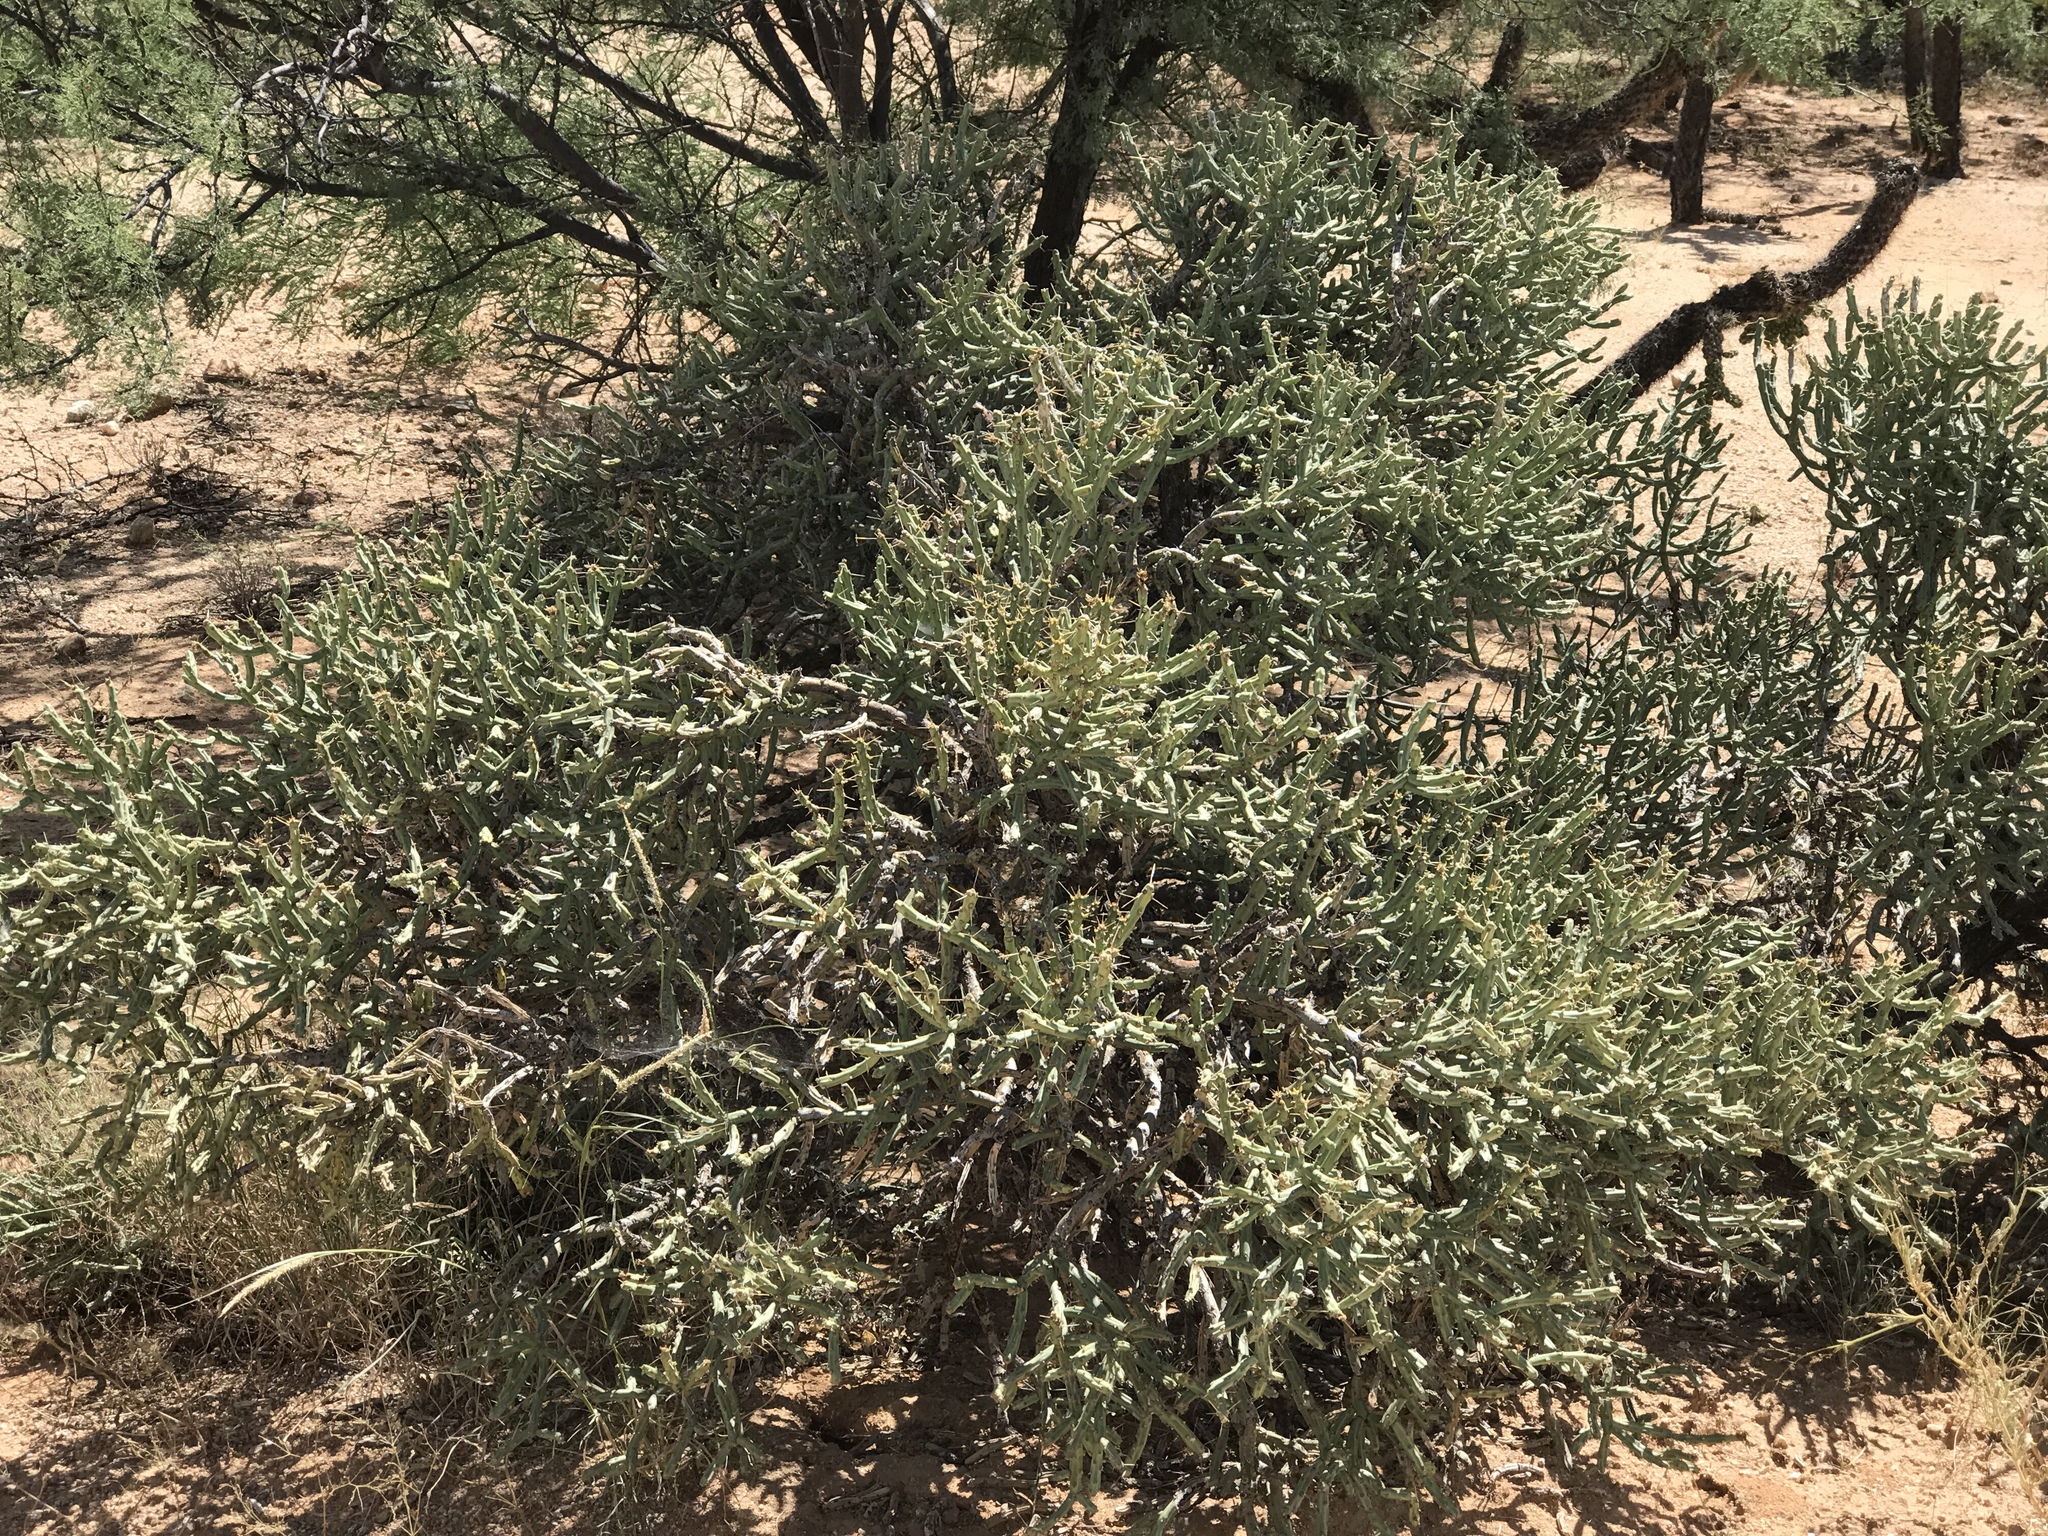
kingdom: Plantae
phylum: Tracheophyta
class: Magnoliopsida
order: Caryophyllales
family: Cactaceae
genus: Cylindropuntia
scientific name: Cylindropuntia arbuscula
